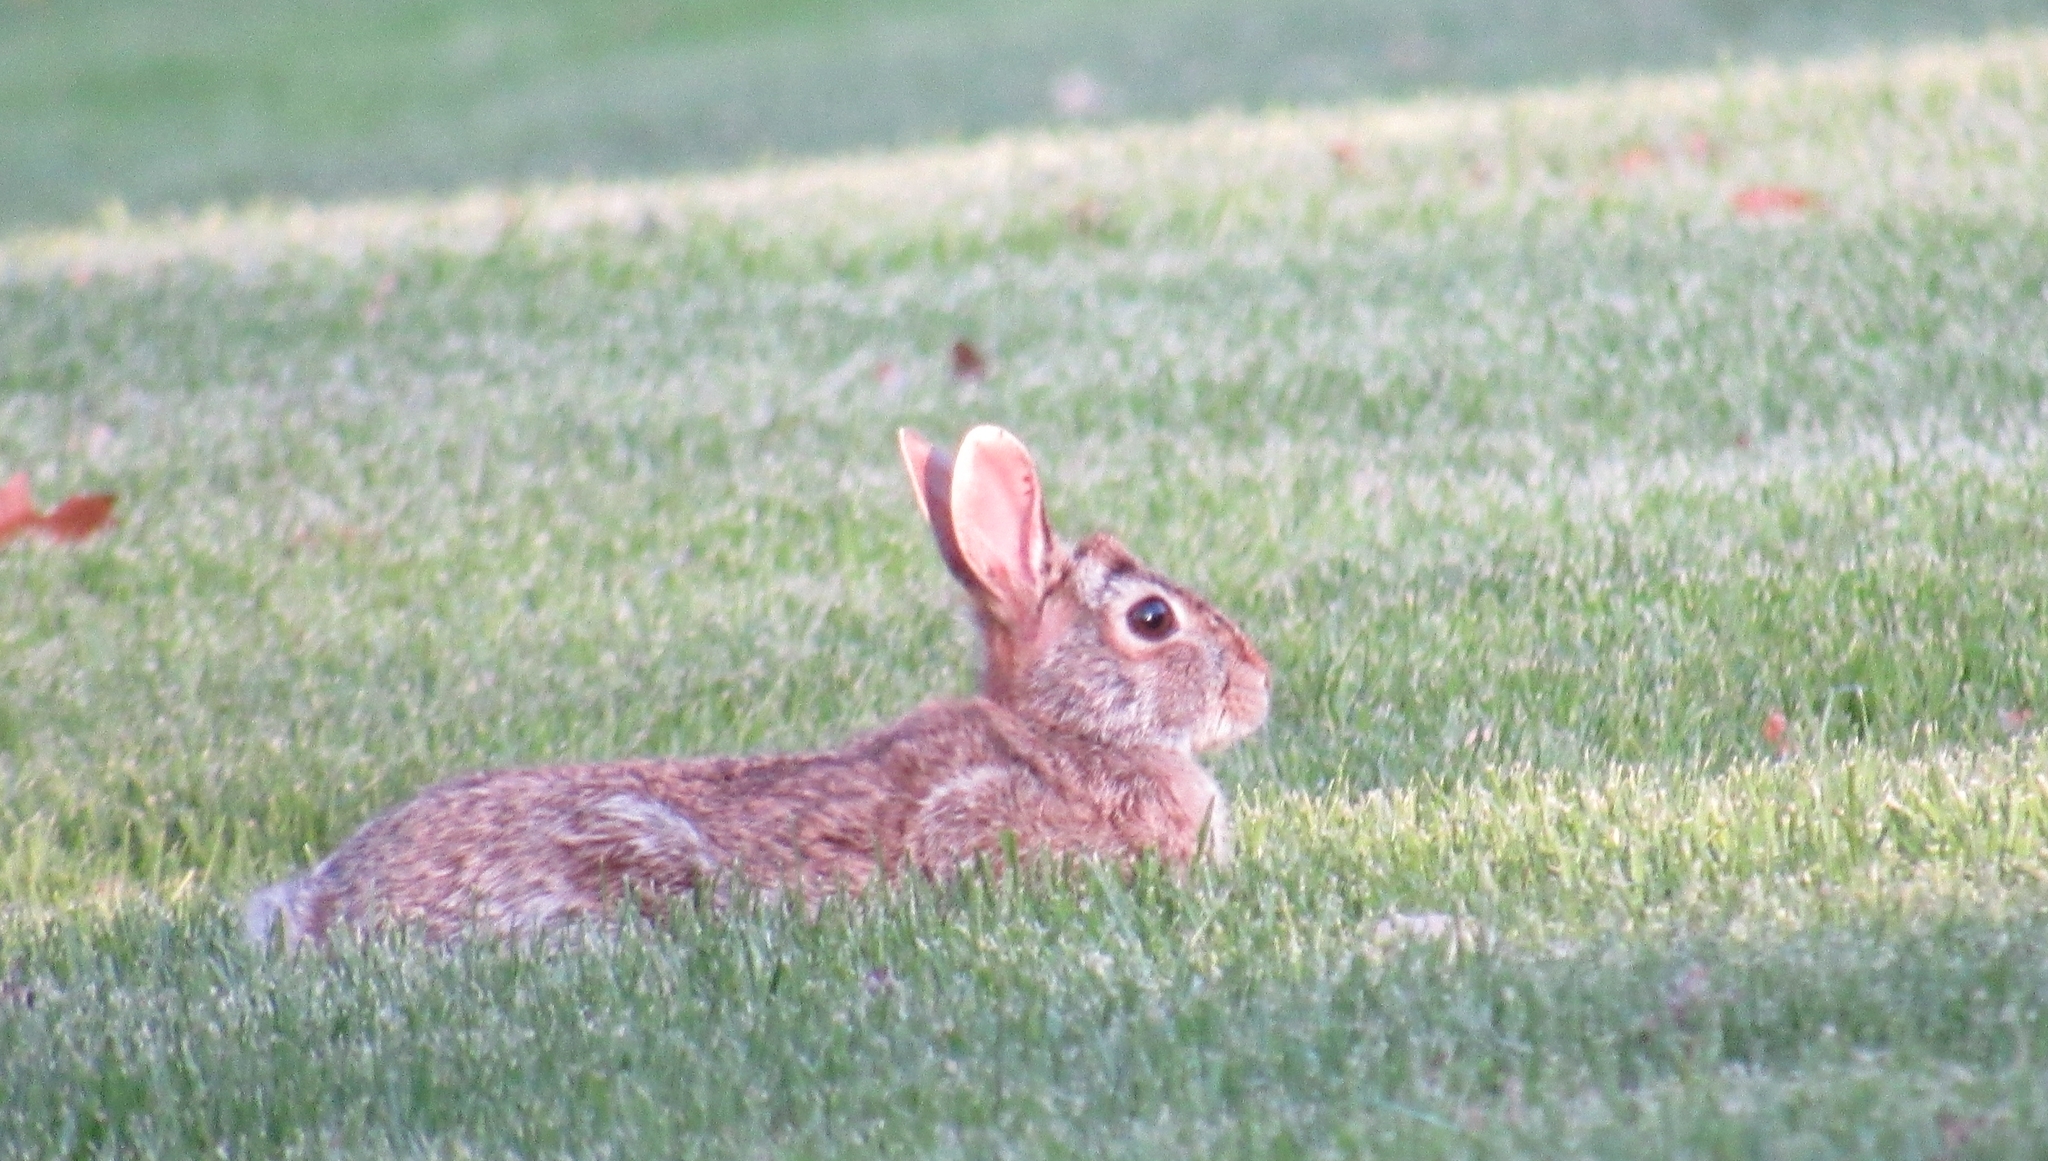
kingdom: Animalia
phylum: Chordata
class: Mammalia
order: Lagomorpha
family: Leporidae
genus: Sylvilagus
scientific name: Sylvilagus floridanus
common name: Eastern cottontail
